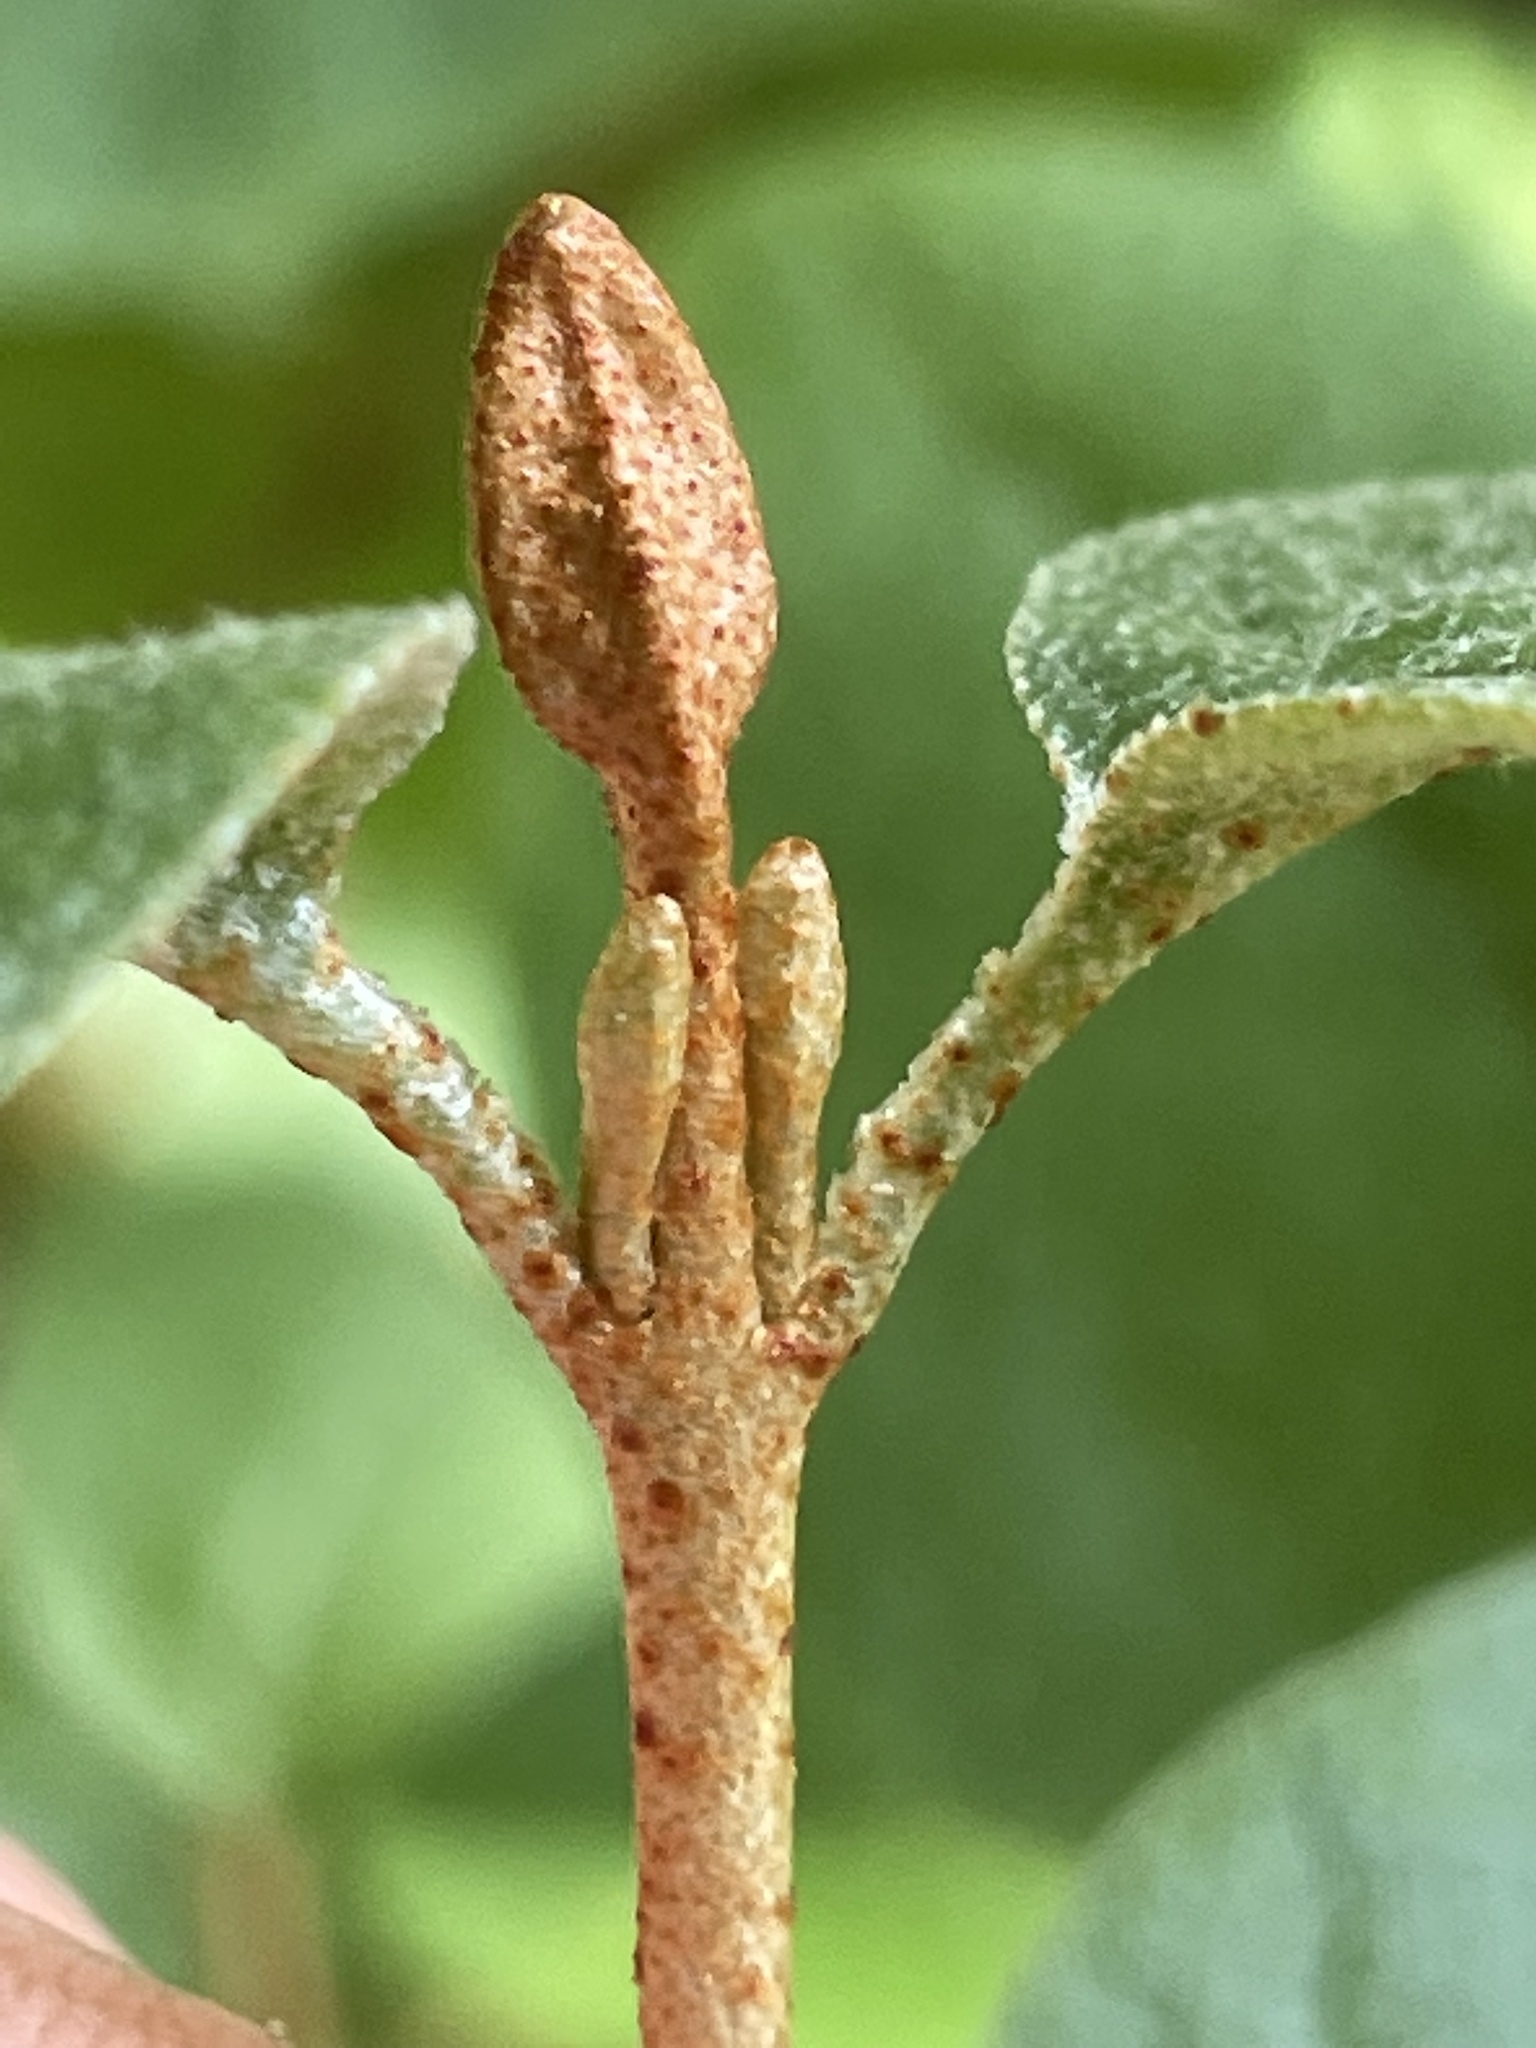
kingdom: Plantae
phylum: Tracheophyta
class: Magnoliopsida
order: Rosales
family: Elaeagnaceae
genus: Shepherdia
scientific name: Shepherdia canadensis
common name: Soapberry
